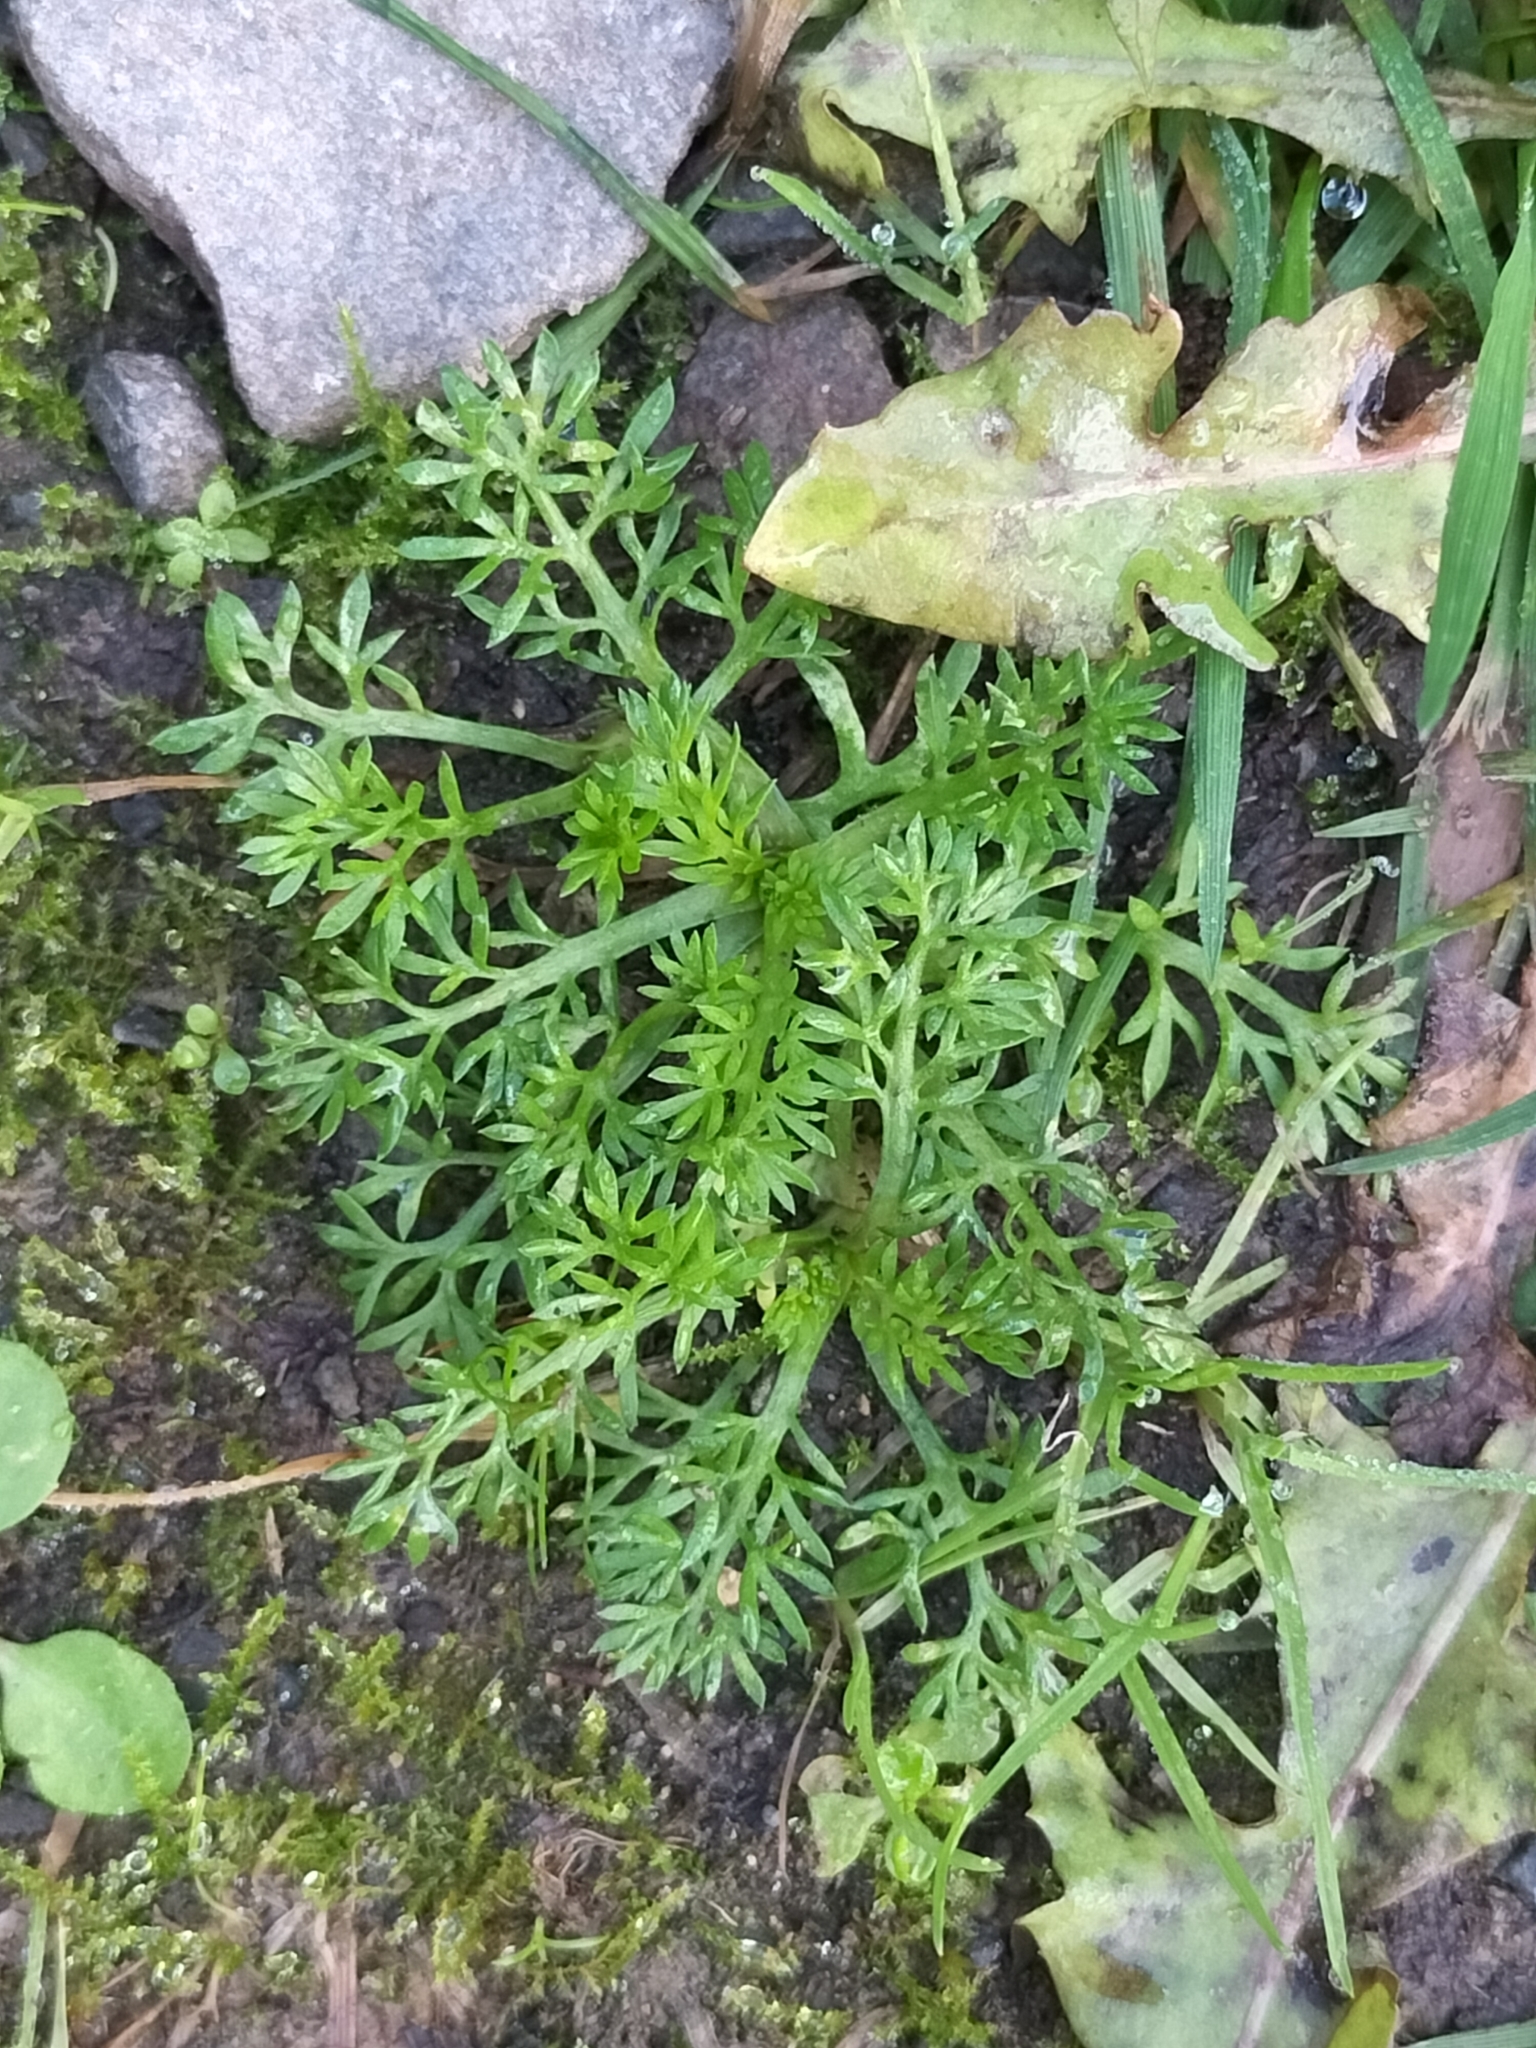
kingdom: Plantae
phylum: Tracheophyta
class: Magnoliopsida
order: Asterales
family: Asteraceae
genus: Soliva
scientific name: Soliva sessilis
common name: Field burrweed
